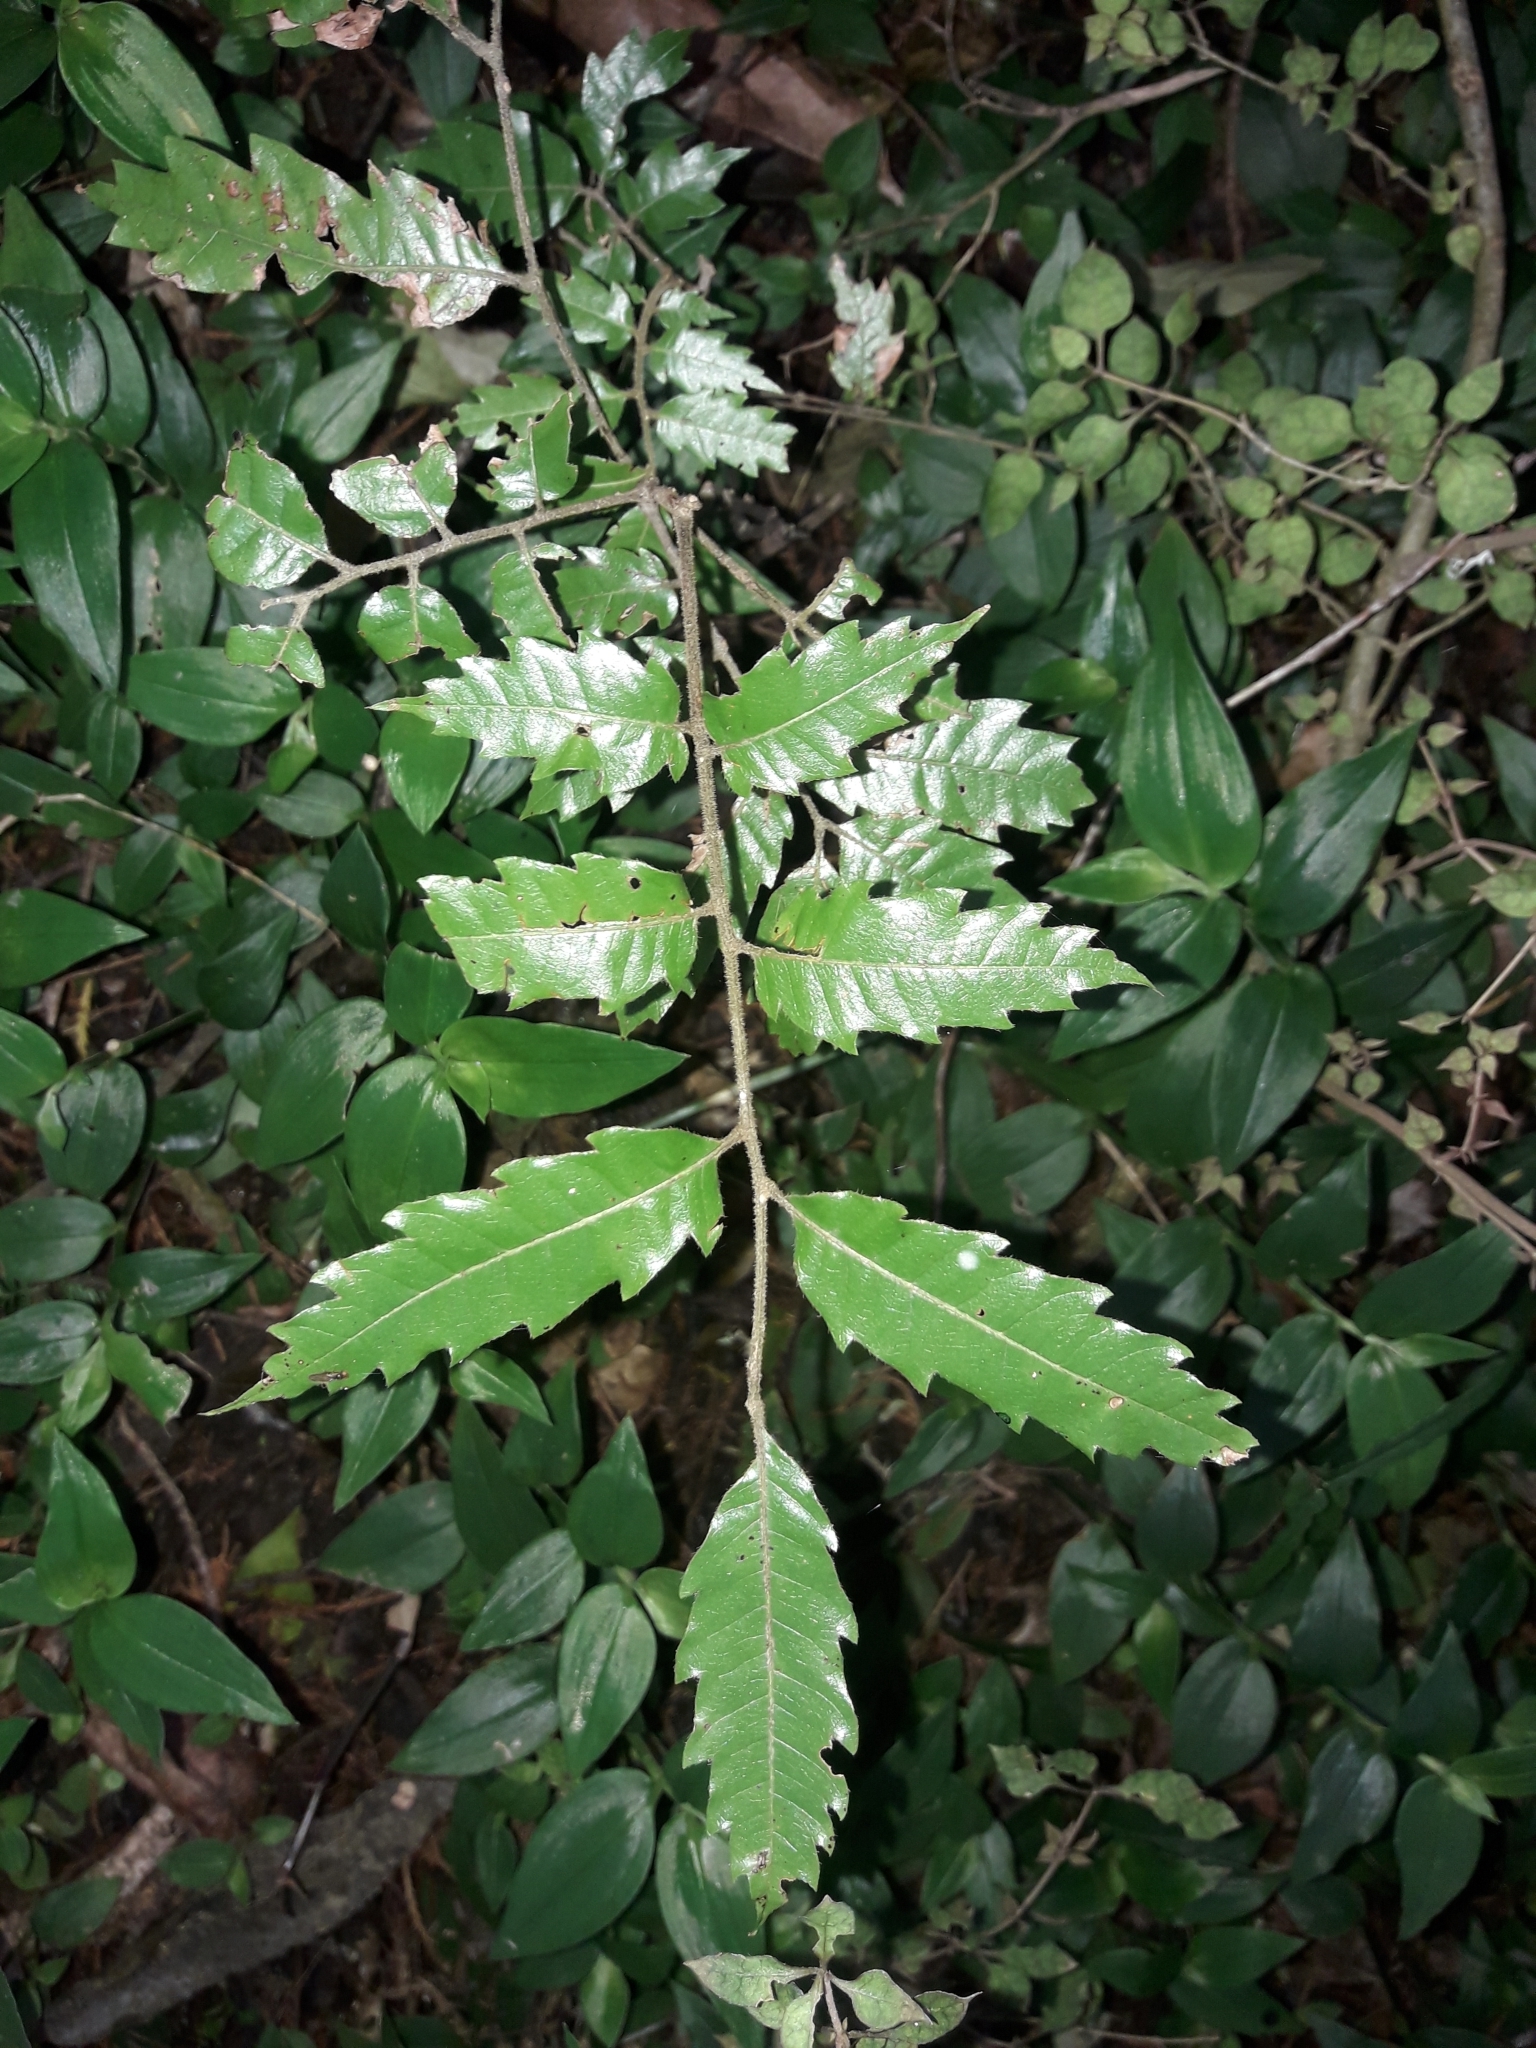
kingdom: Plantae
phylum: Tracheophyta
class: Magnoliopsida
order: Sapindales
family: Sapindaceae
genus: Alectryon
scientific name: Alectryon excelsus
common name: Three kings titoki
